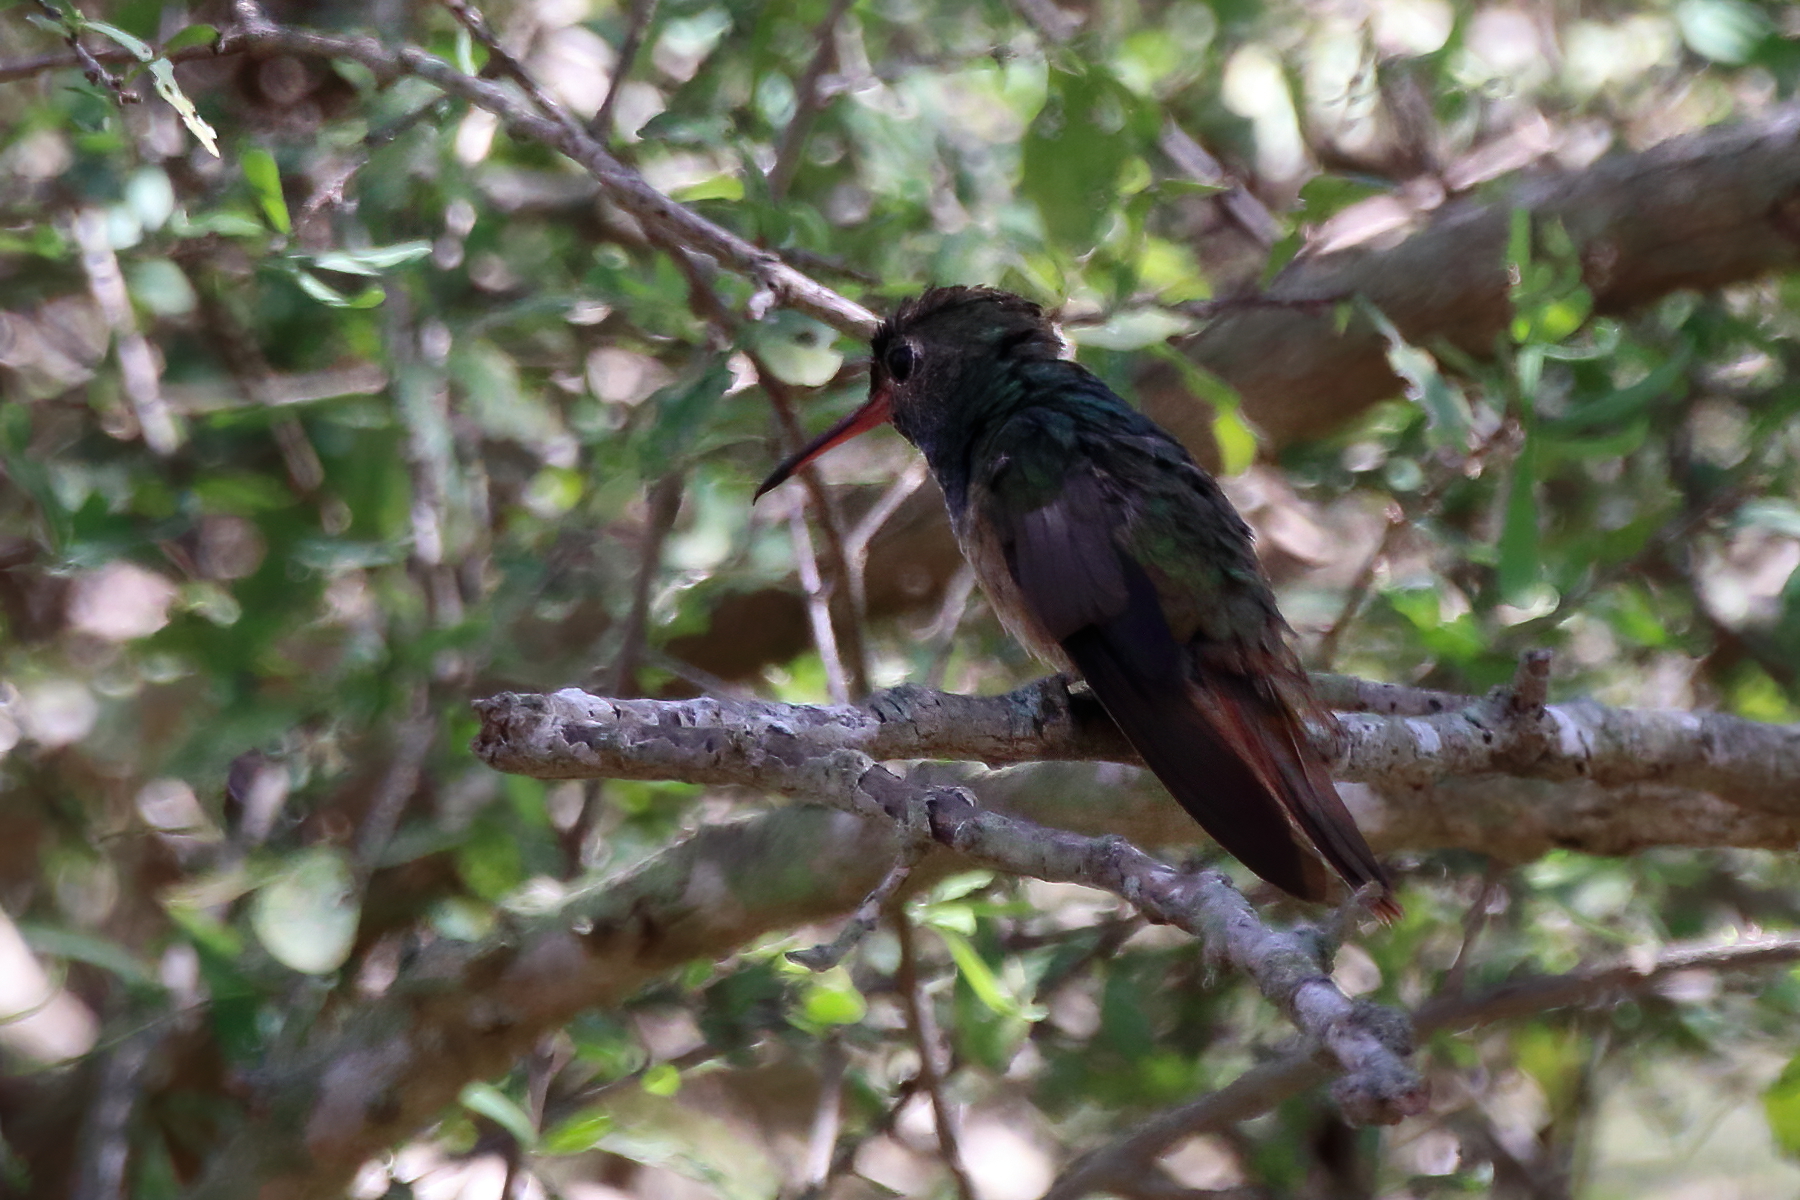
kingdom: Animalia
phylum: Chordata
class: Aves
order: Apodiformes
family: Trochilidae
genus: Amazilia
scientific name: Amazilia yucatanensis
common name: Buff-bellied hummingbird
